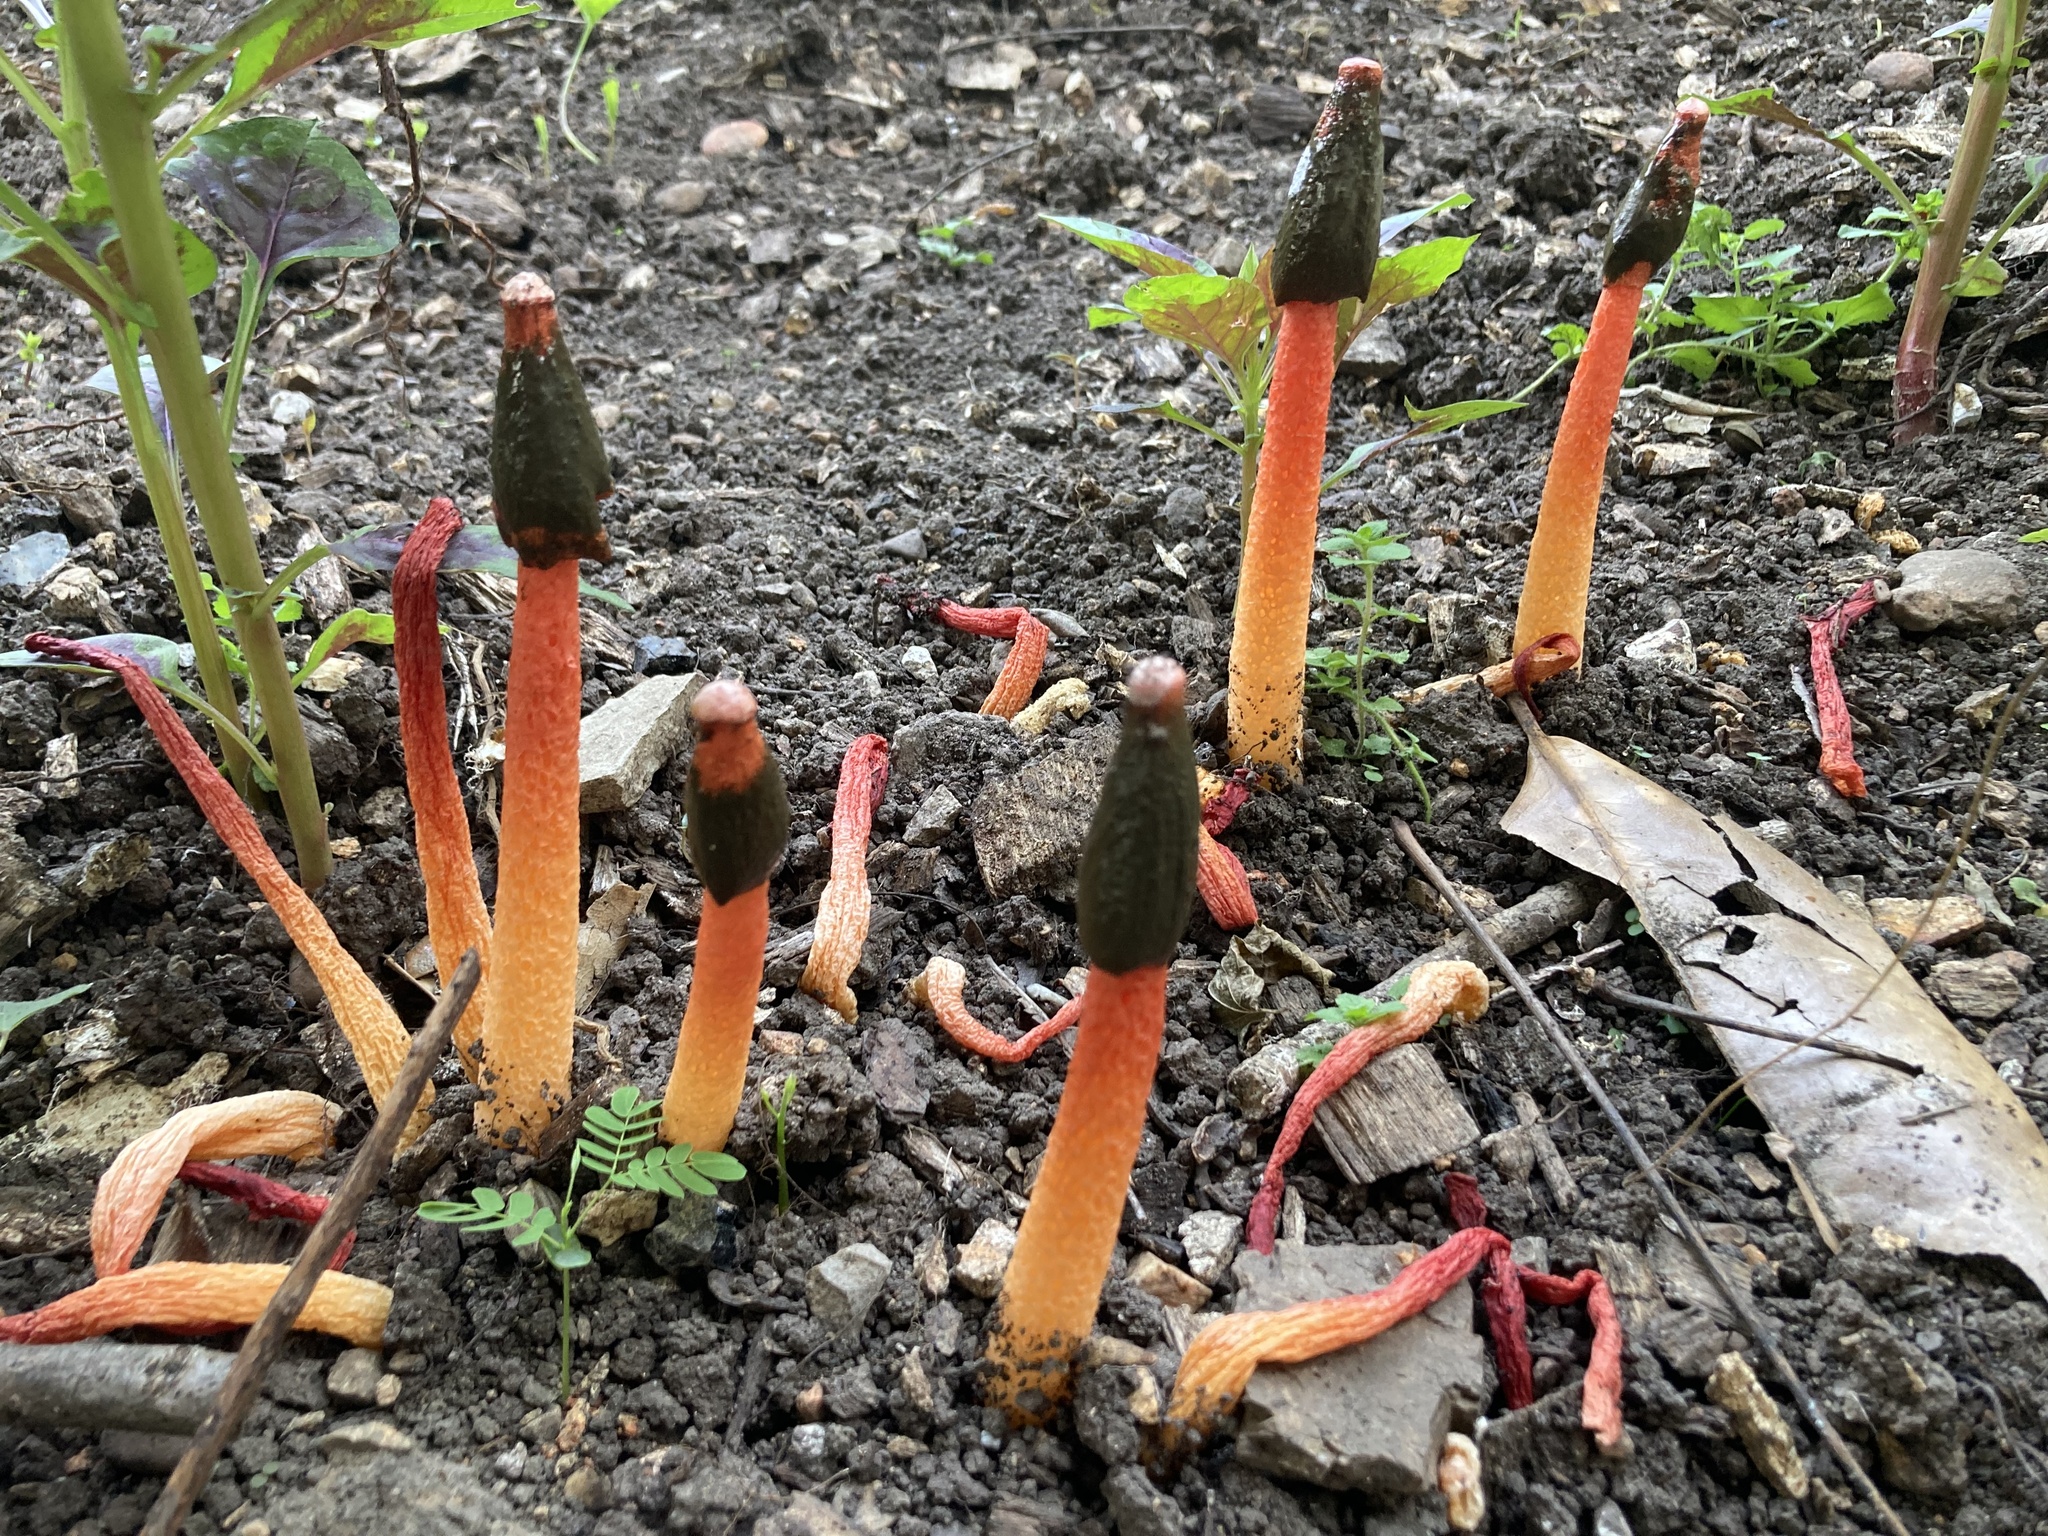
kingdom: Fungi
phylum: Basidiomycota
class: Agaricomycetes
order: Phallales
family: Phallaceae
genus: Phallus
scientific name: Phallus rugulosus
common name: Wrinkly stinkhorn
